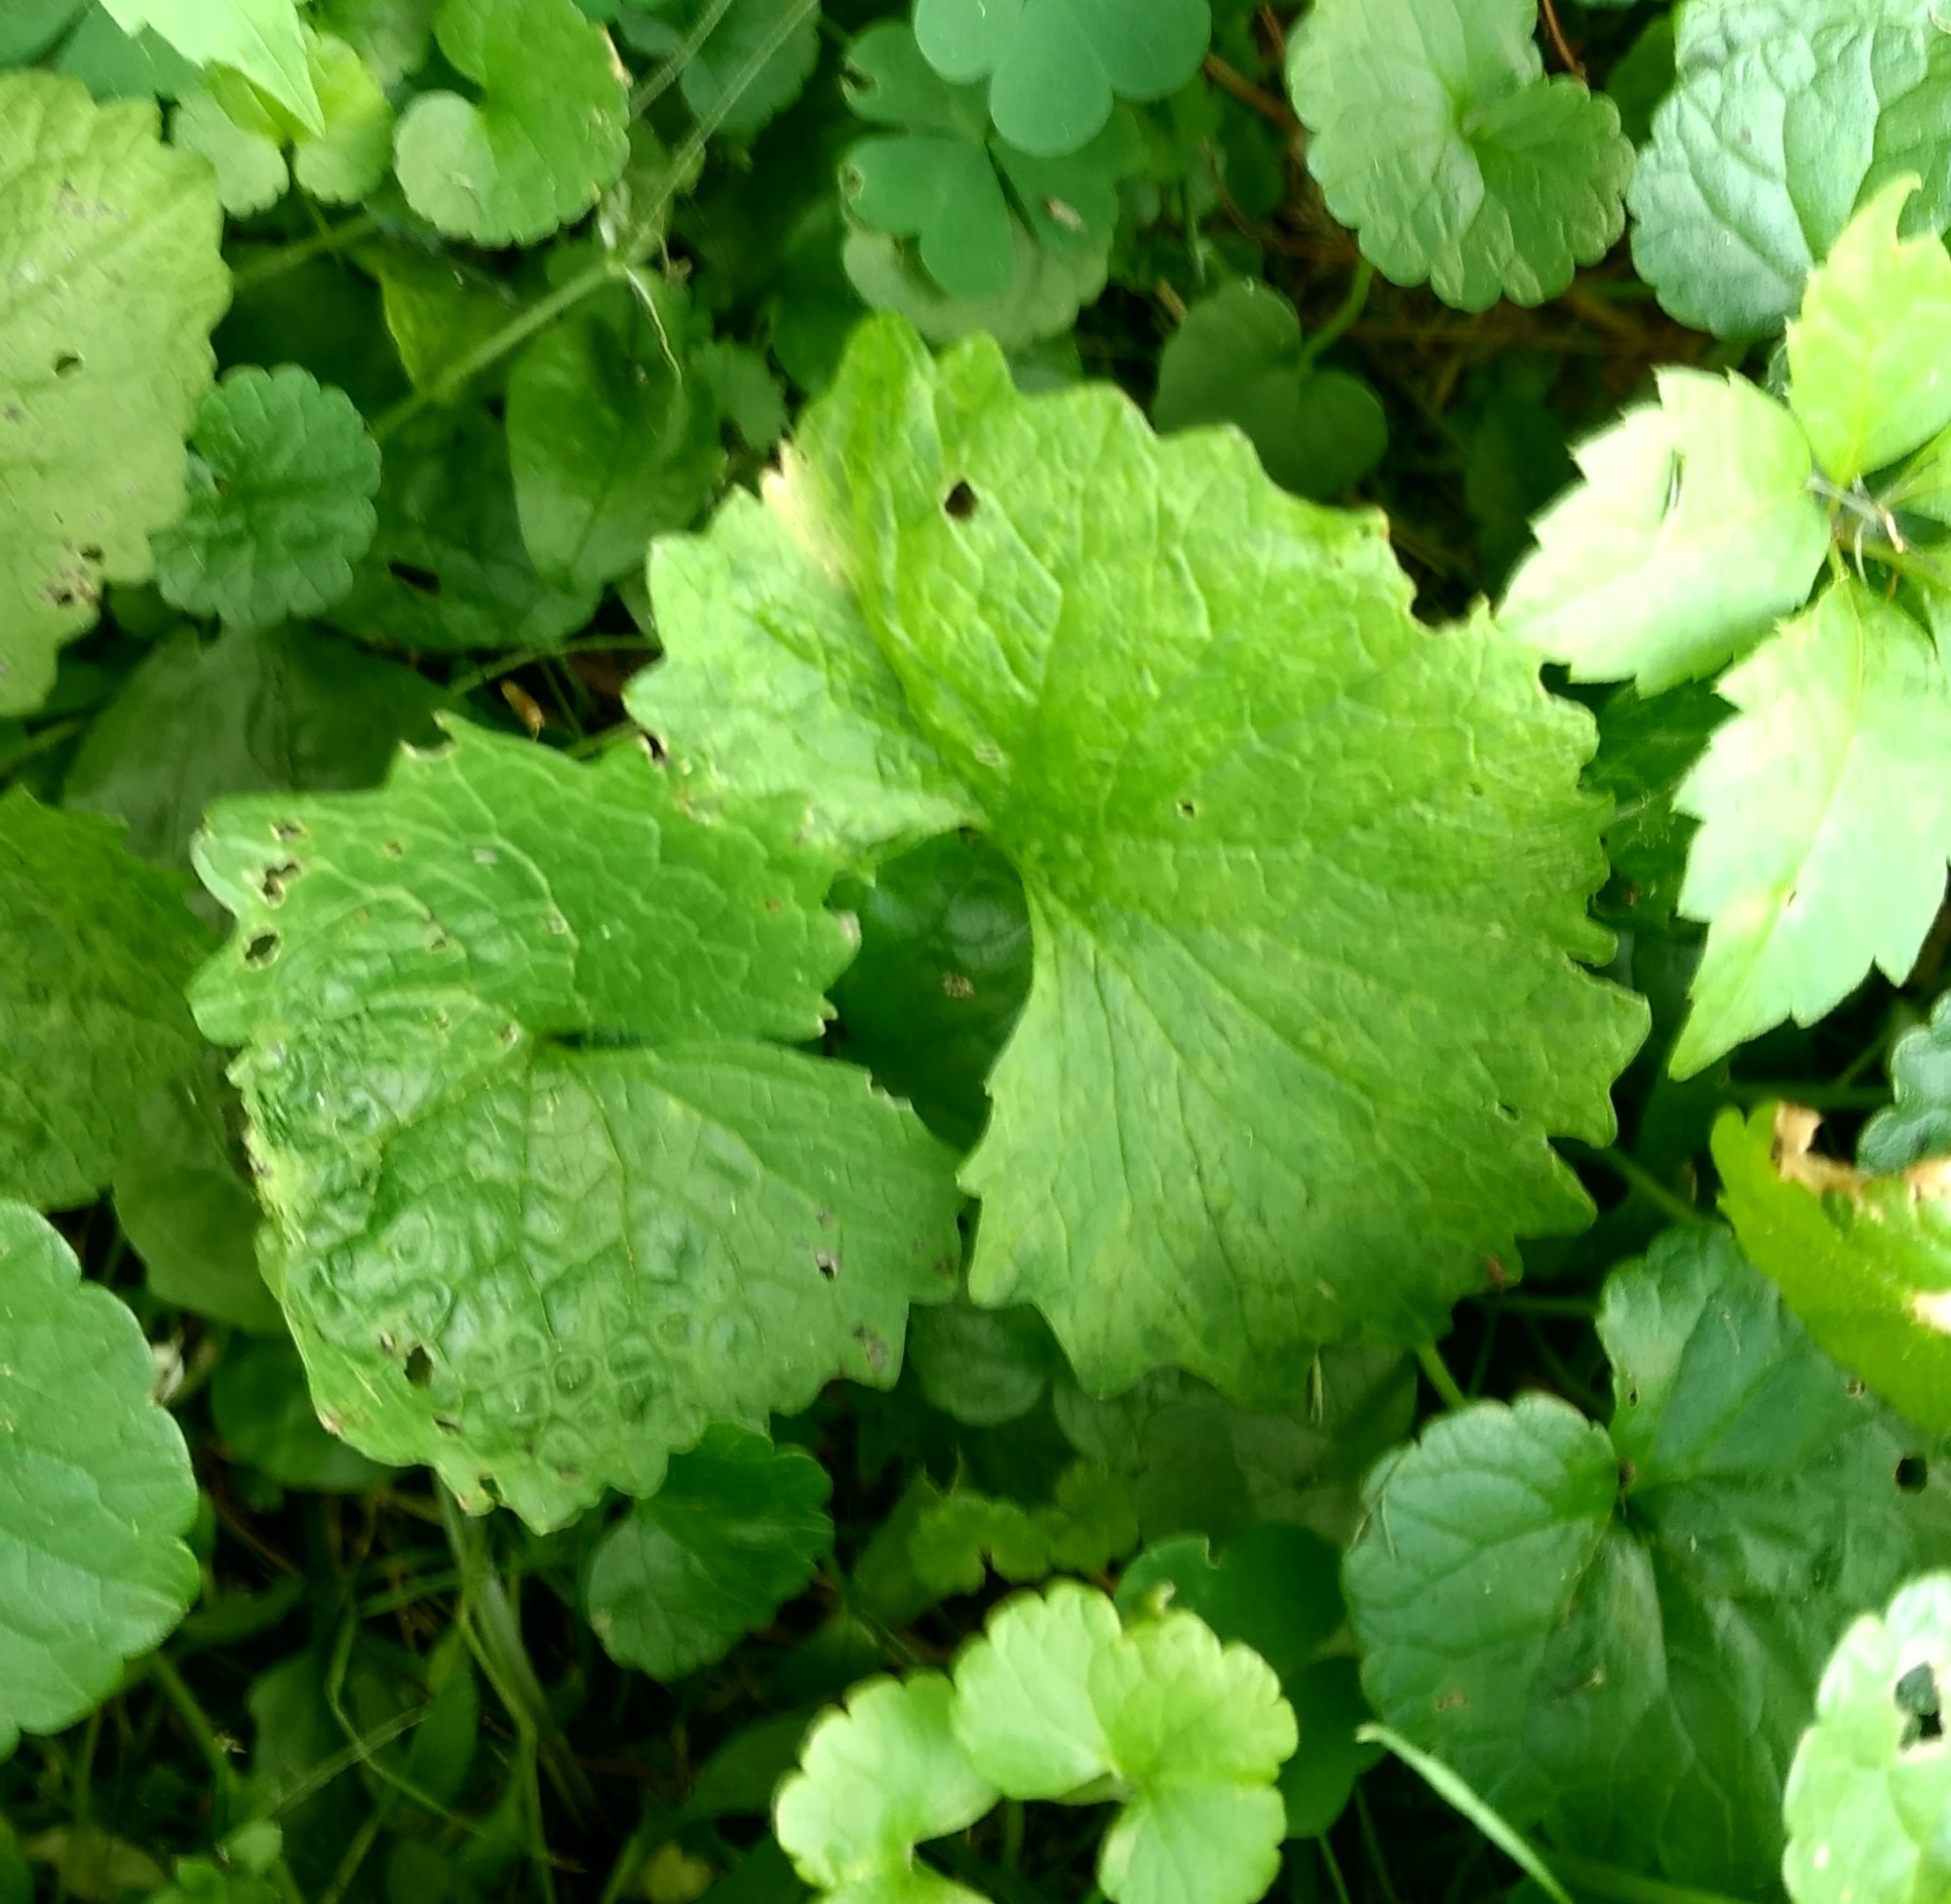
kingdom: Plantae
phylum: Tracheophyta
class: Magnoliopsida
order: Brassicales
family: Brassicaceae
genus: Alliaria
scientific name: Alliaria petiolata
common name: Garlic mustard
